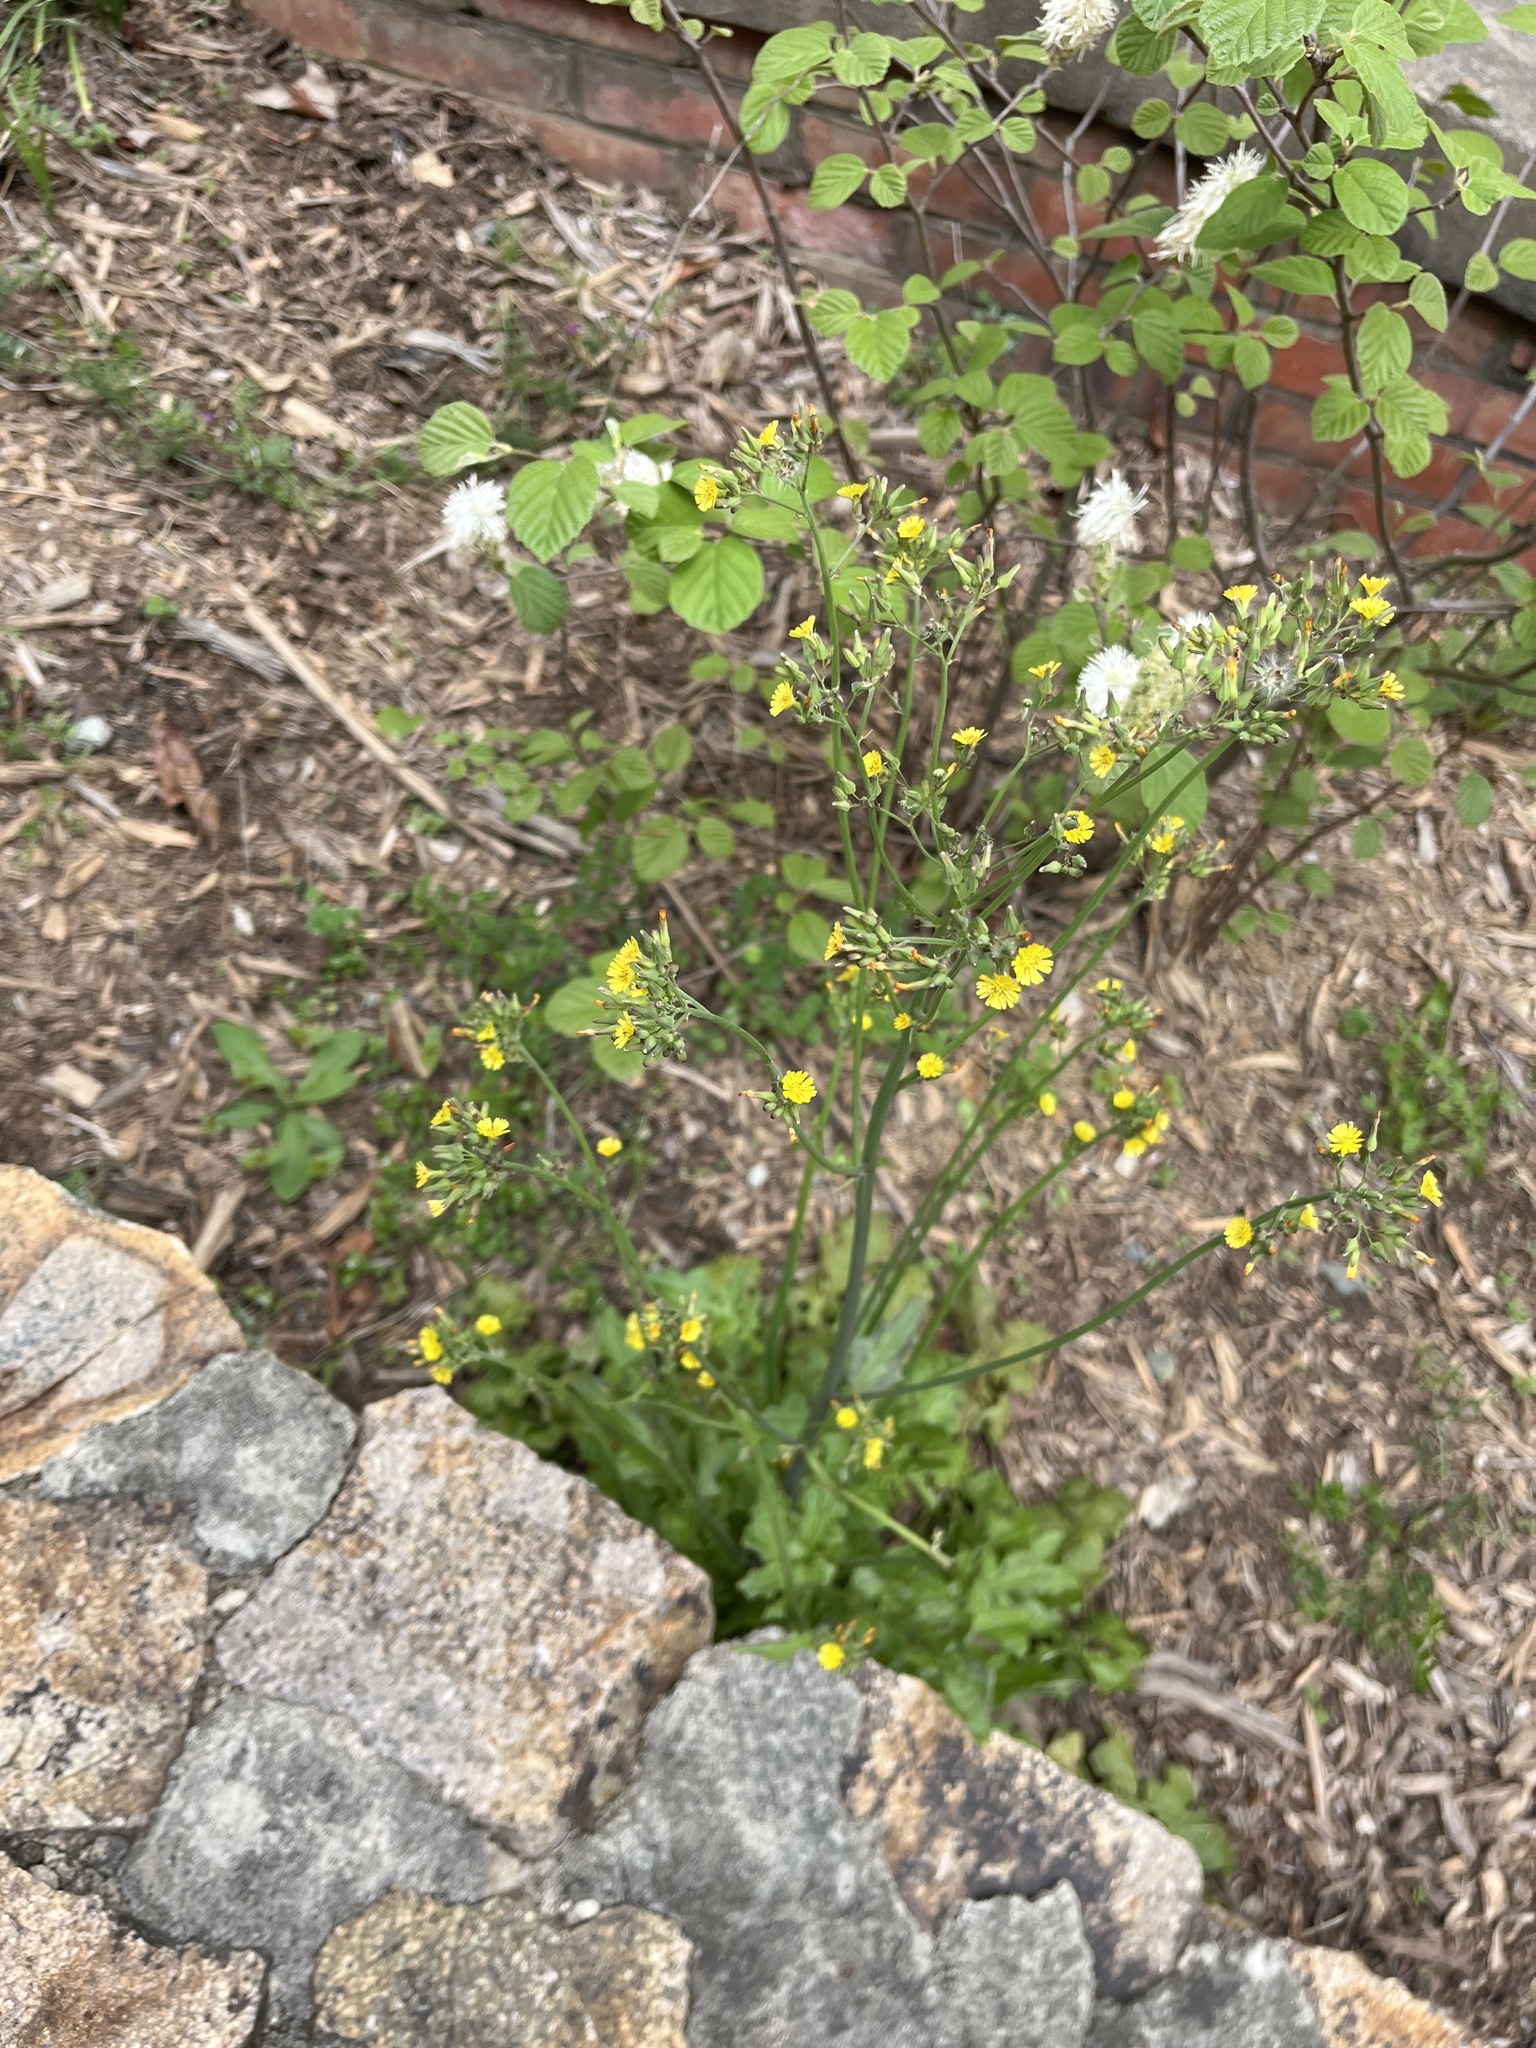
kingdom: Plantae
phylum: Tracheophyta
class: Magnoliopsida
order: Asterales
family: Asteraceae
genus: Youngia
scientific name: Youngia japonica
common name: Oriental false hawksbeard
